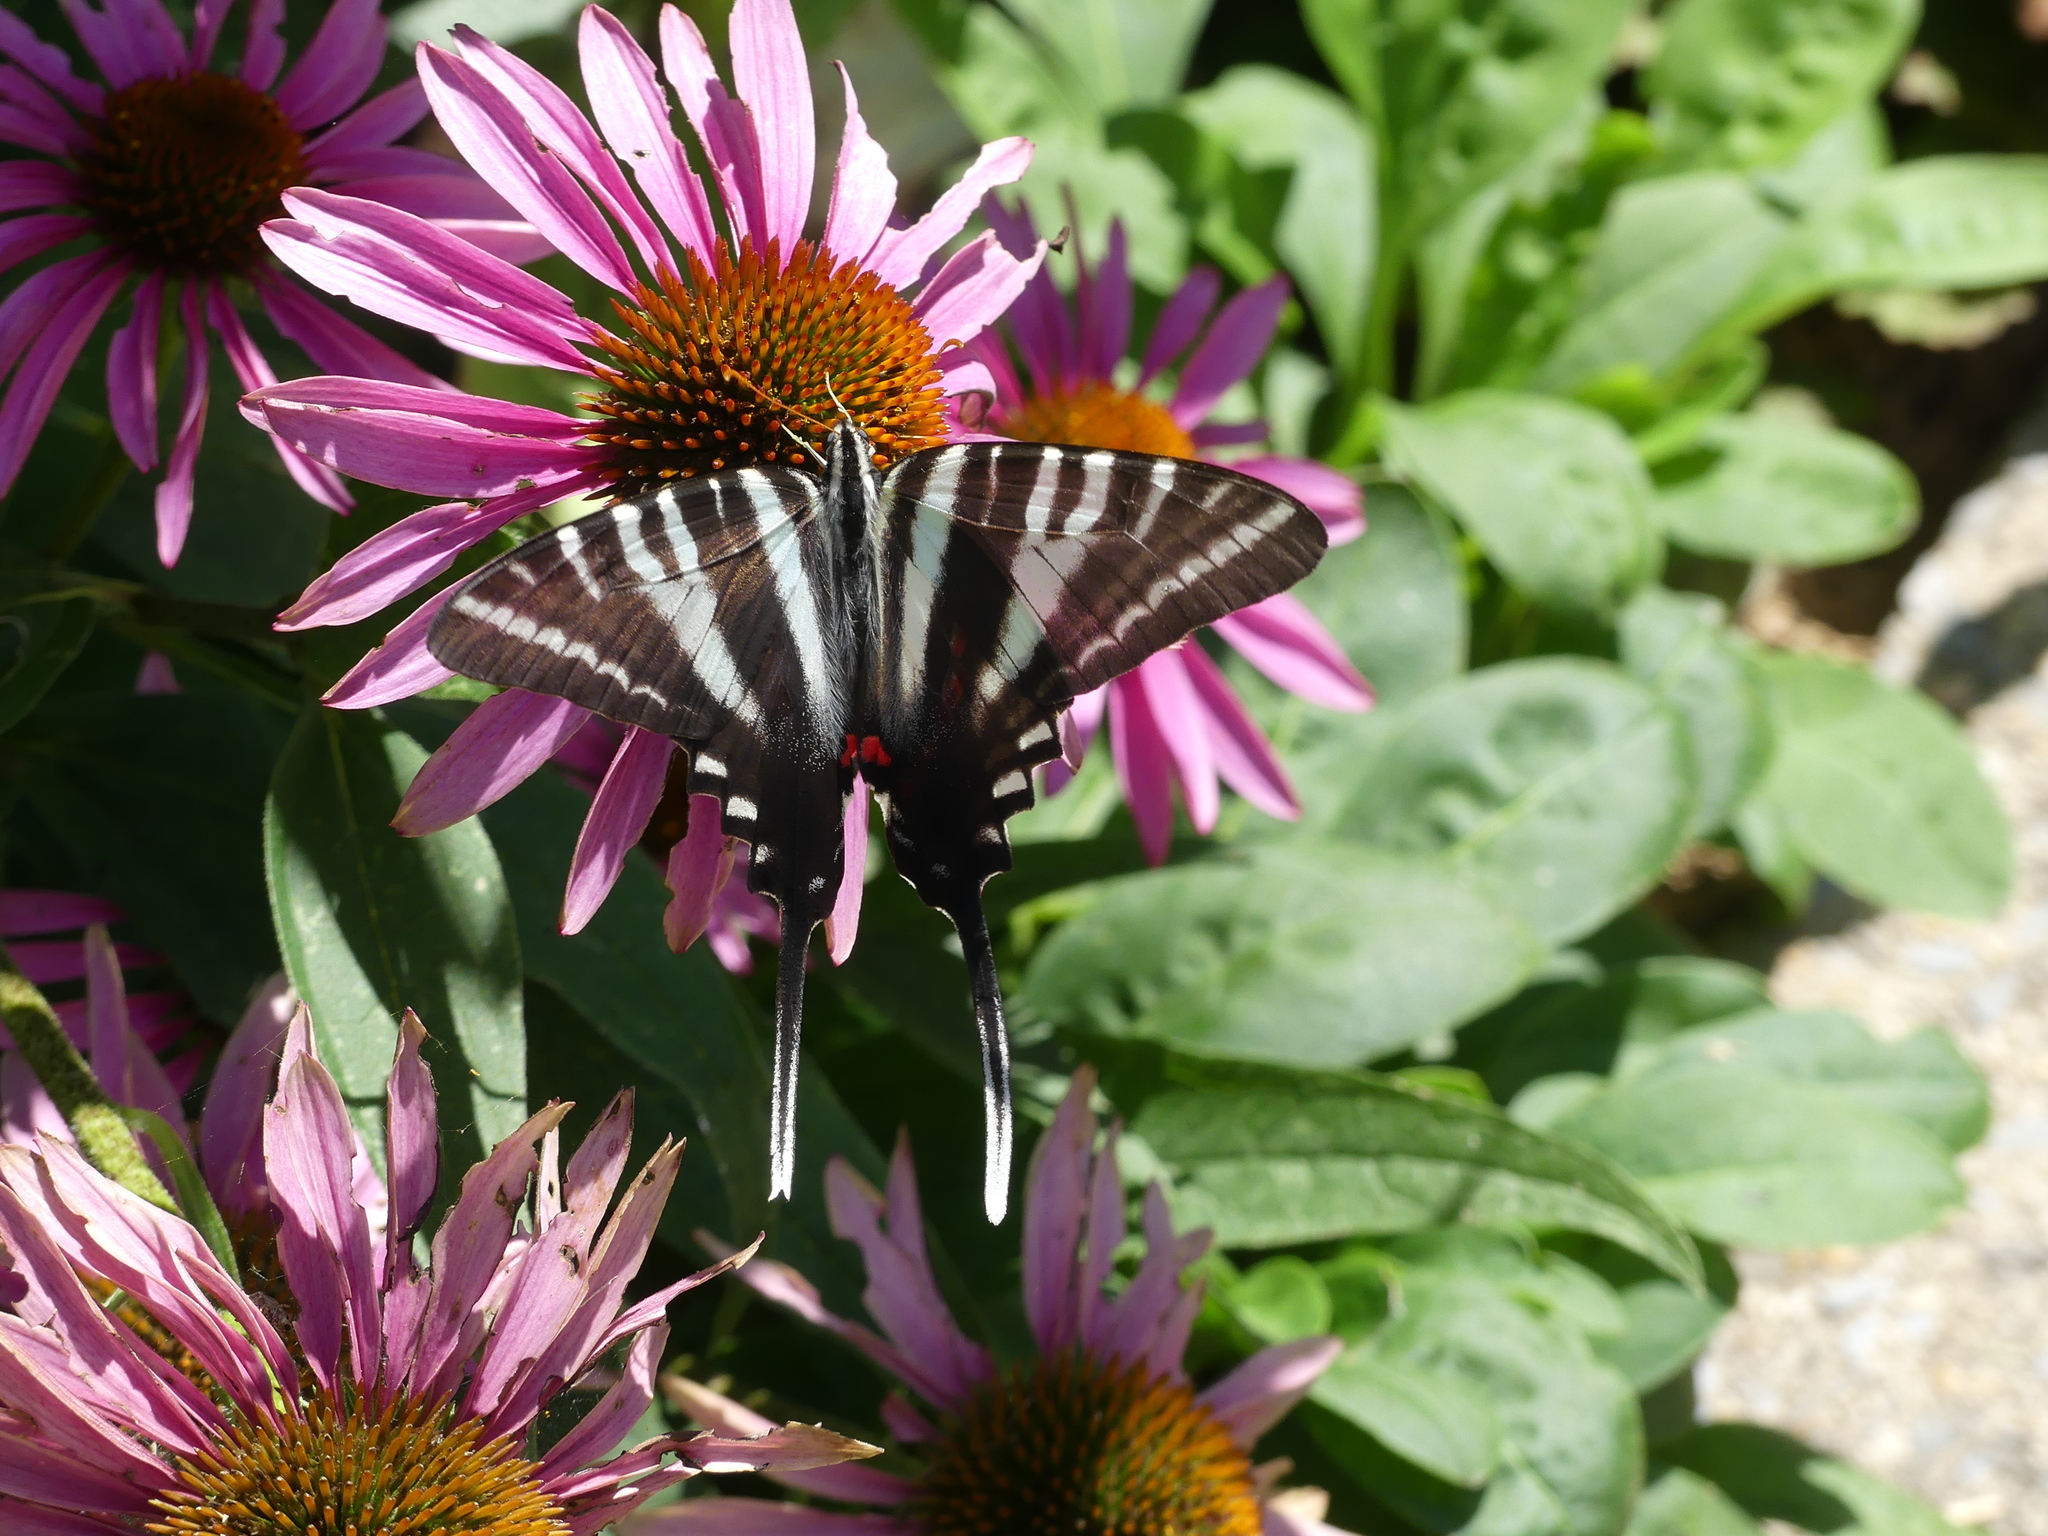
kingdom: Animalia
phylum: Arthropoda
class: Insecta
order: Lepidoptera
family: Papilionidae
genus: Protographium
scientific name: Protographium marcellus
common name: Zebra swallowtail
